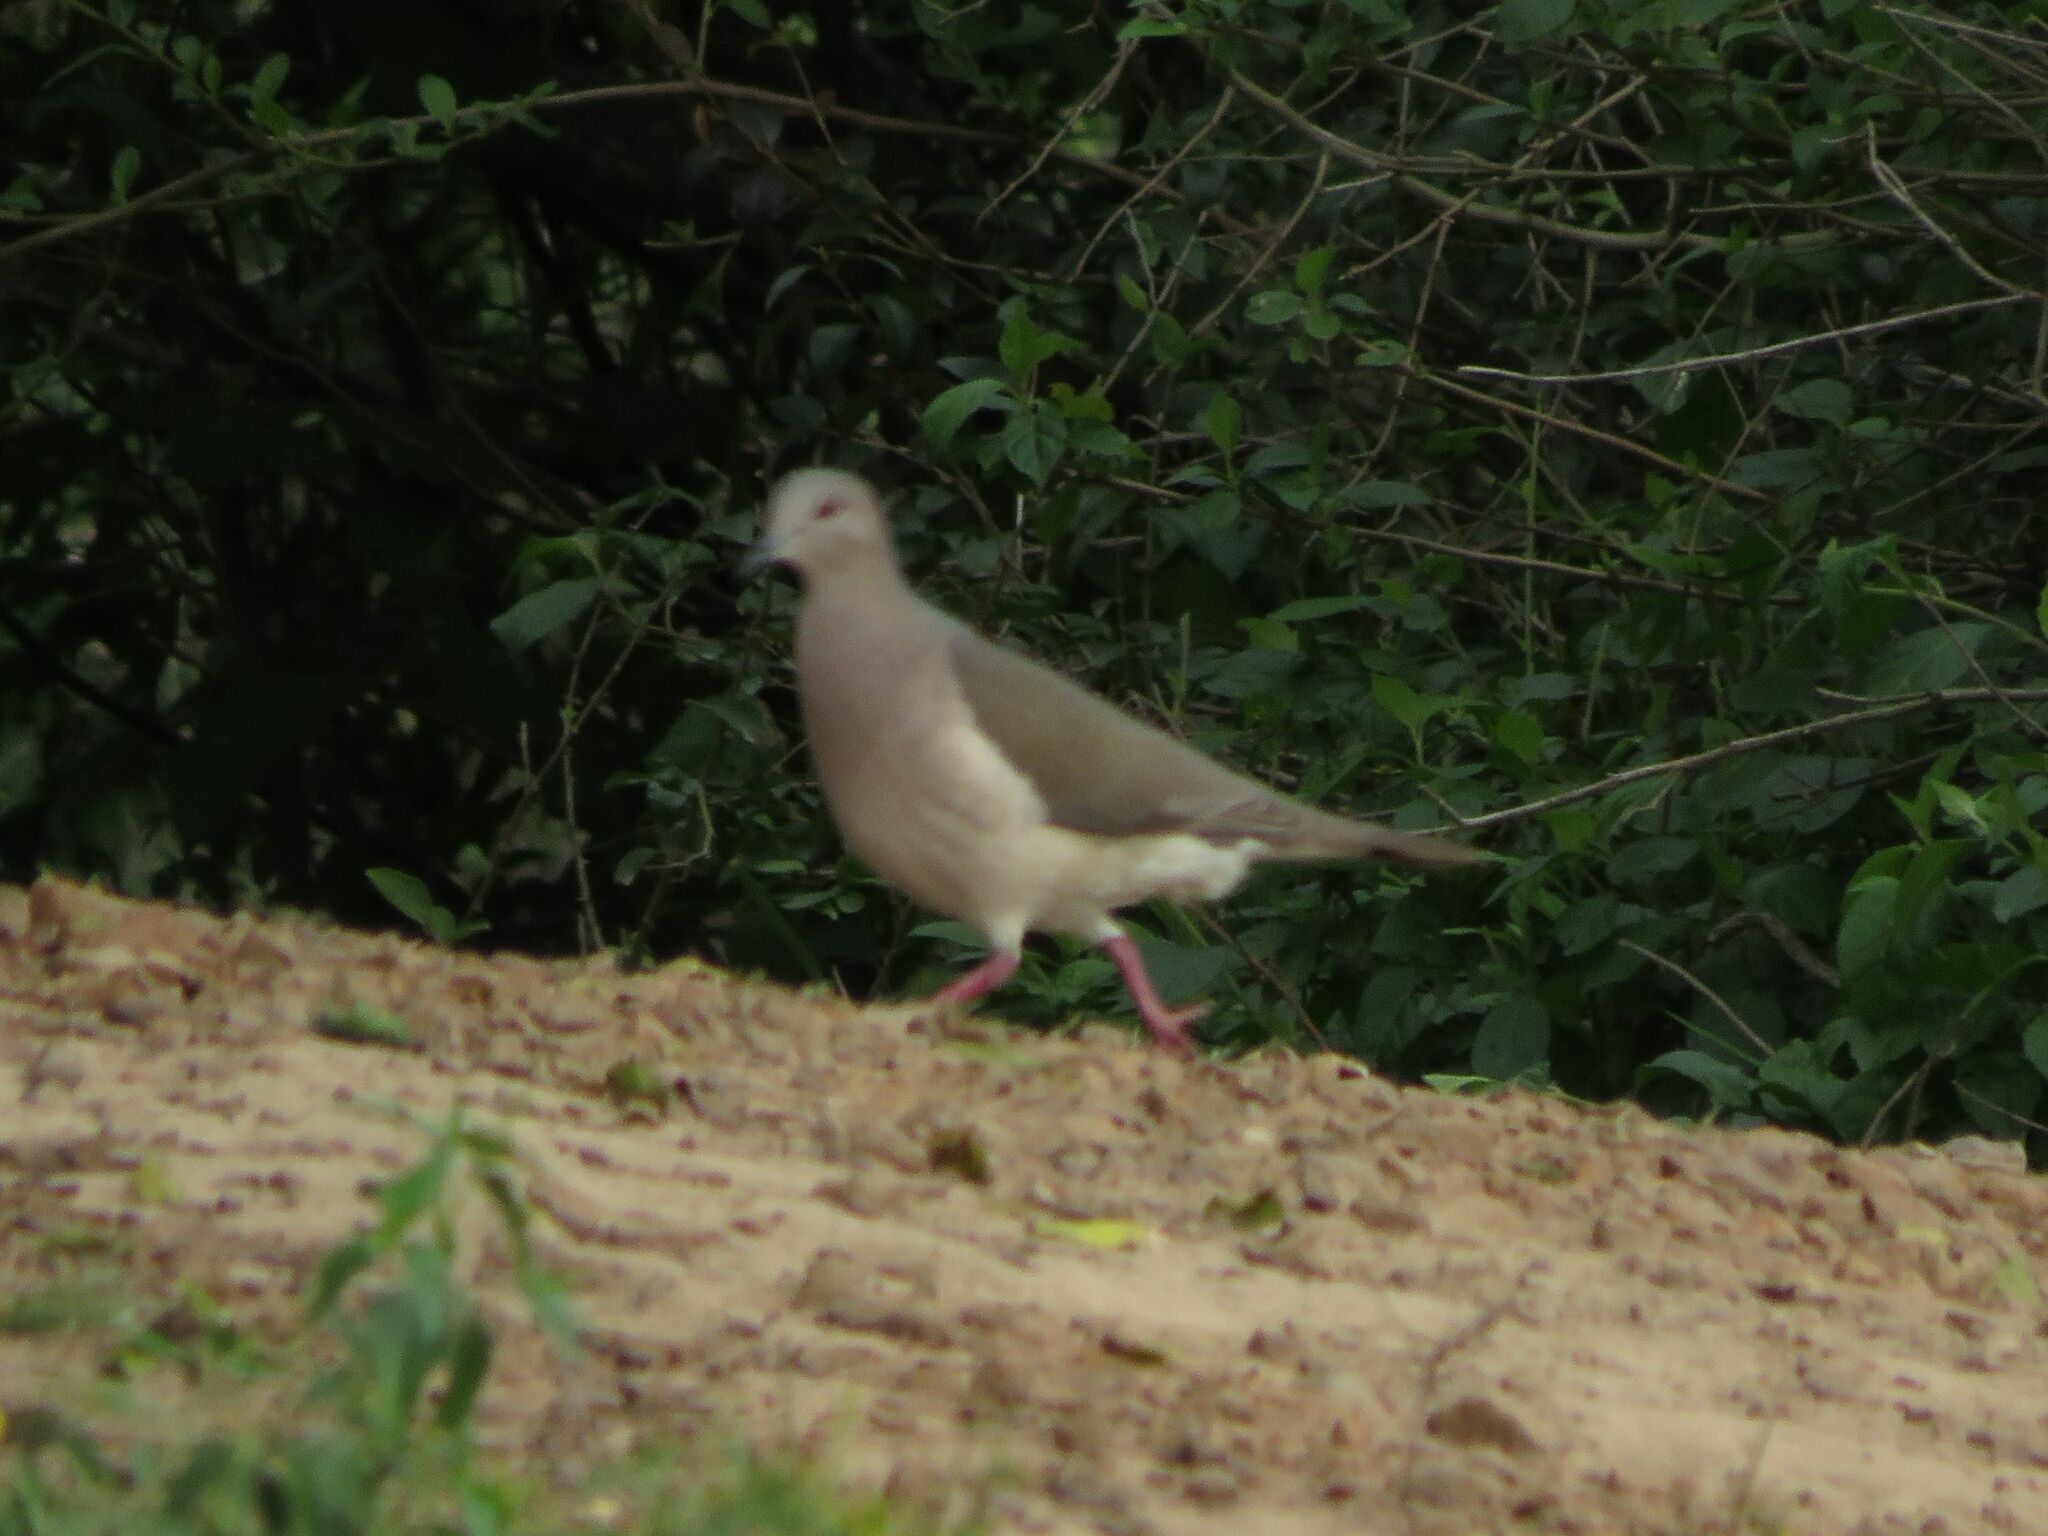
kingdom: Animalia
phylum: Chordata
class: Aves
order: Columbiformes
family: Columbidae
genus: Leptotila
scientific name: Leptotila verreauxi
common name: White-tipped dove
